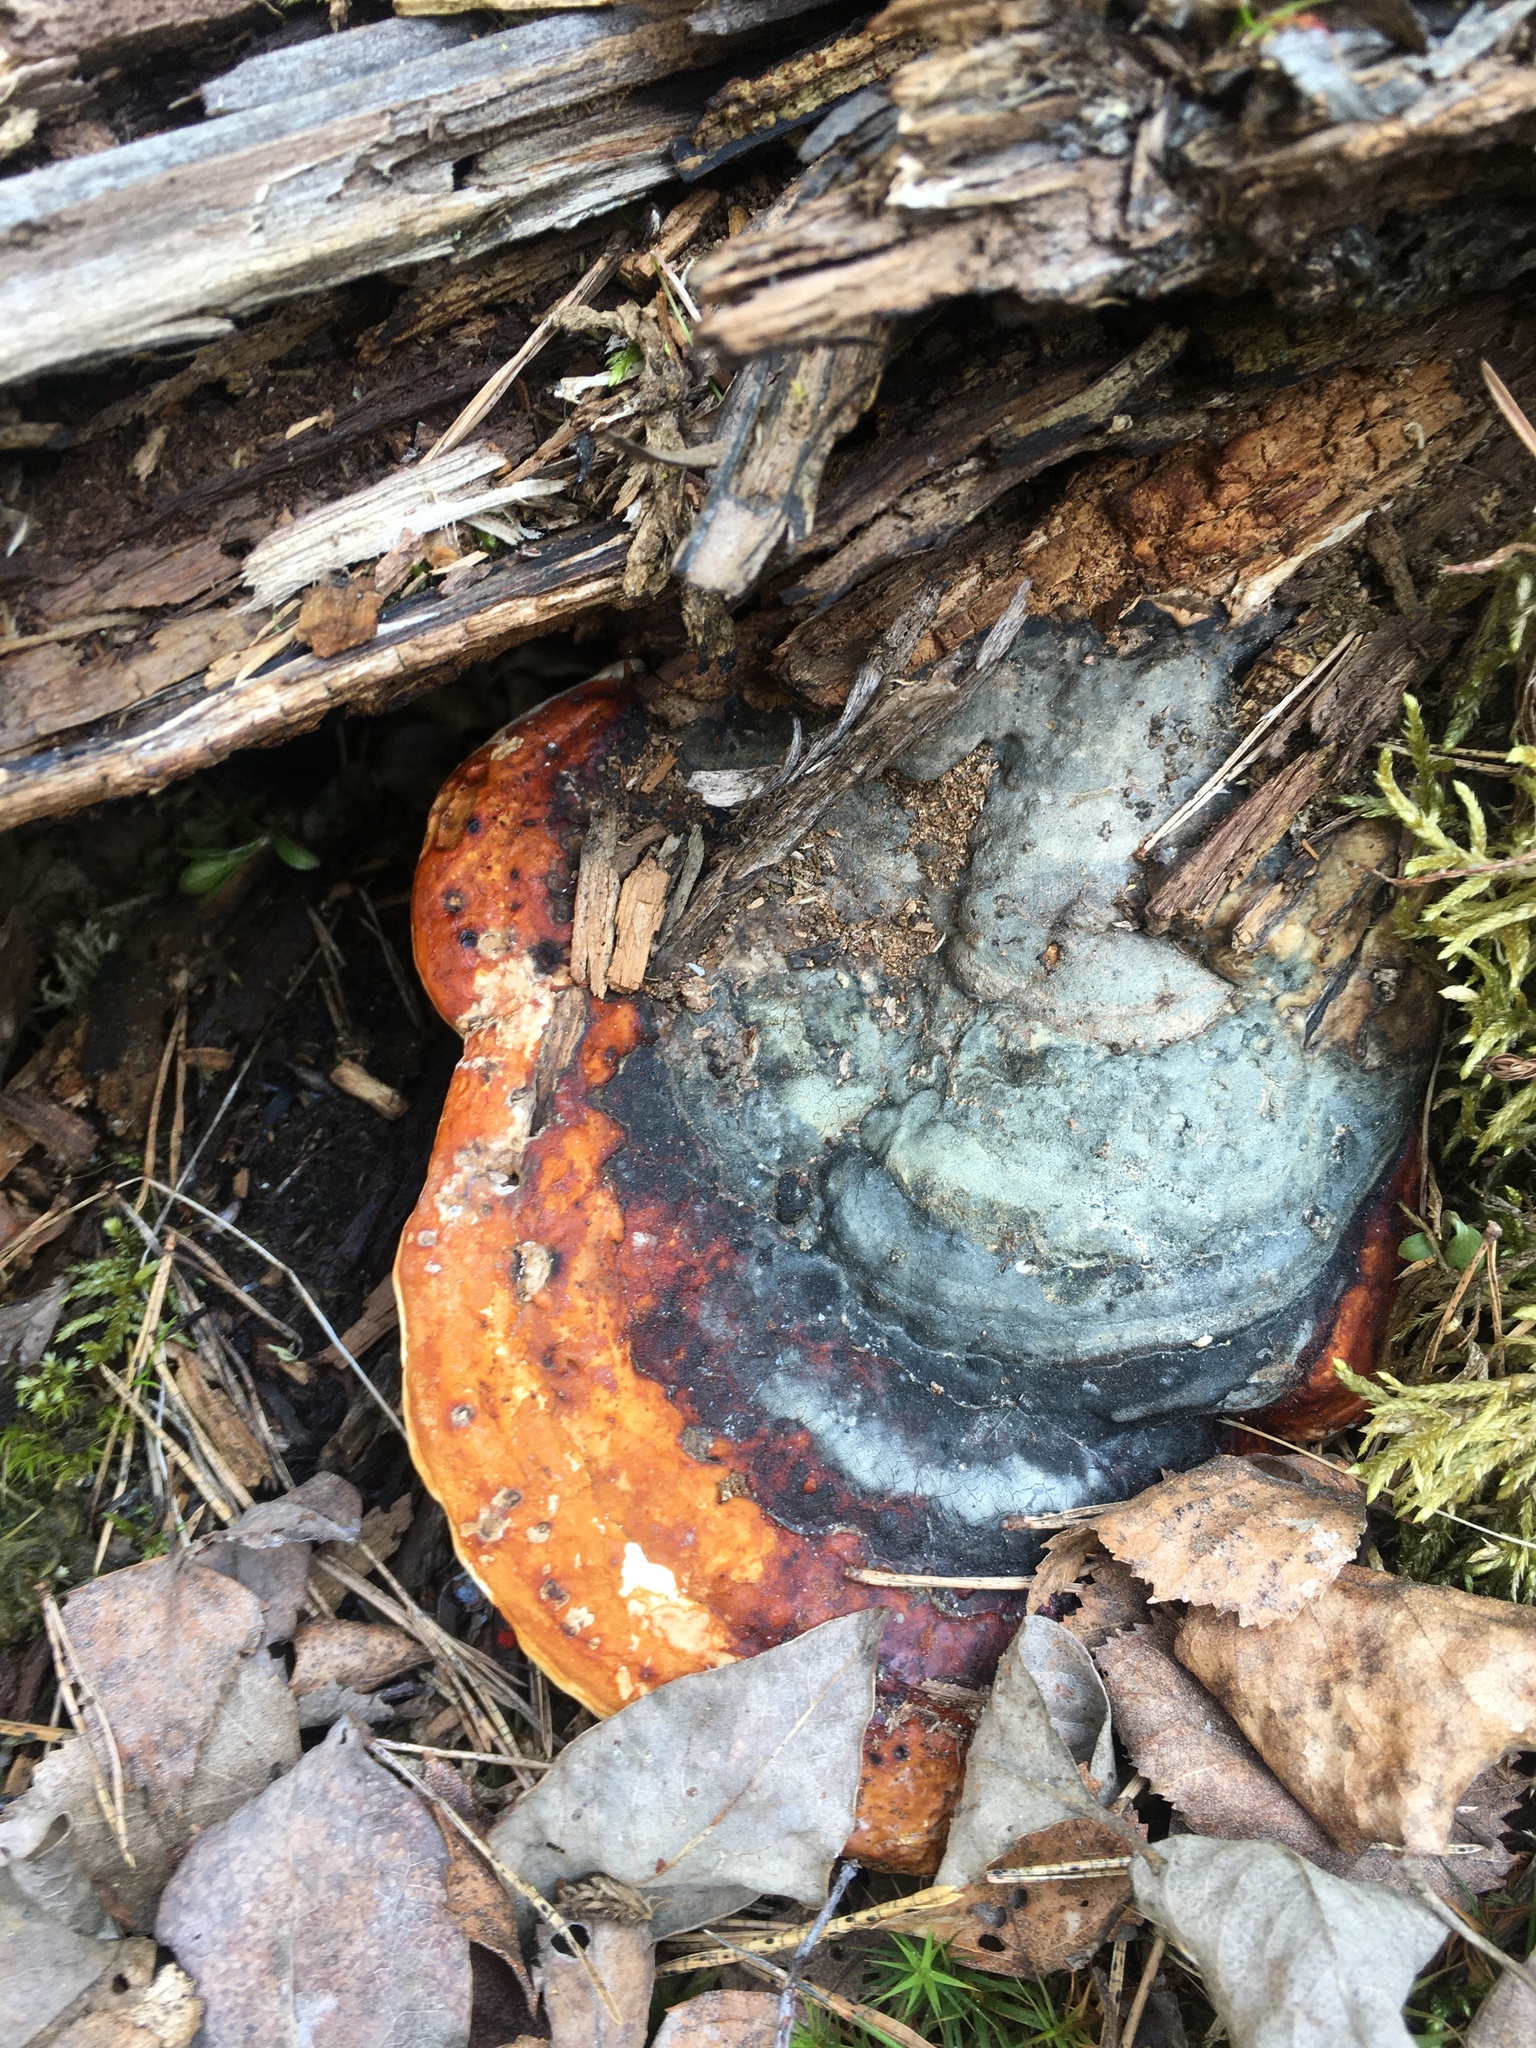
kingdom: Fungi
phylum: Basidiomycota
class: Agaricomycetes
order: Polyporales
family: Fomitopsidaceae
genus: Fomitopsis
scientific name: Fomitopsis pinicola
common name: Red-belted bracket
